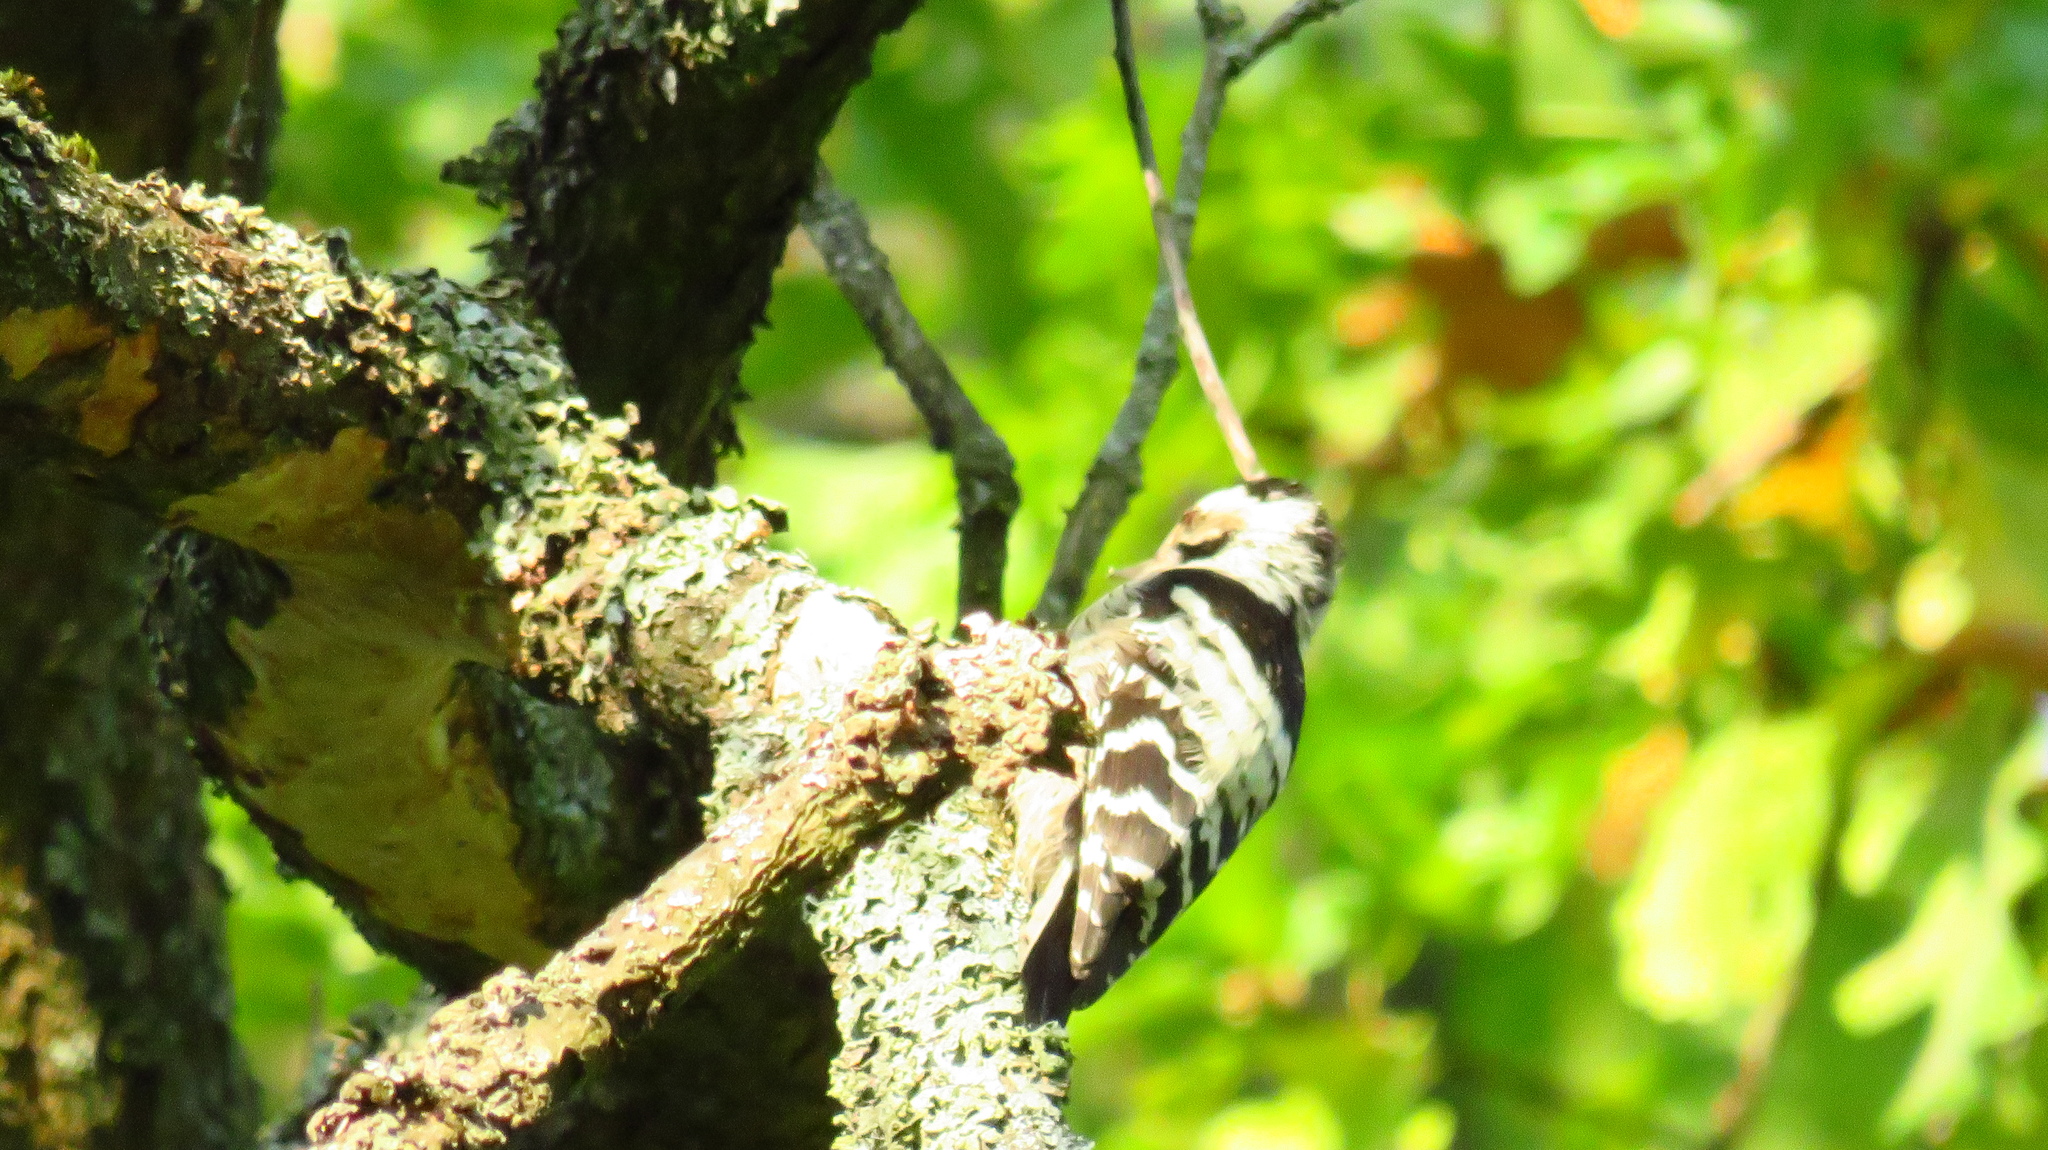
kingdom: Animalia
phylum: Chordata
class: Aves
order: Piciformes
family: Picidae
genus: Dryobates
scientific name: Dryobates minor
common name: Lesser spotted woodpecker
